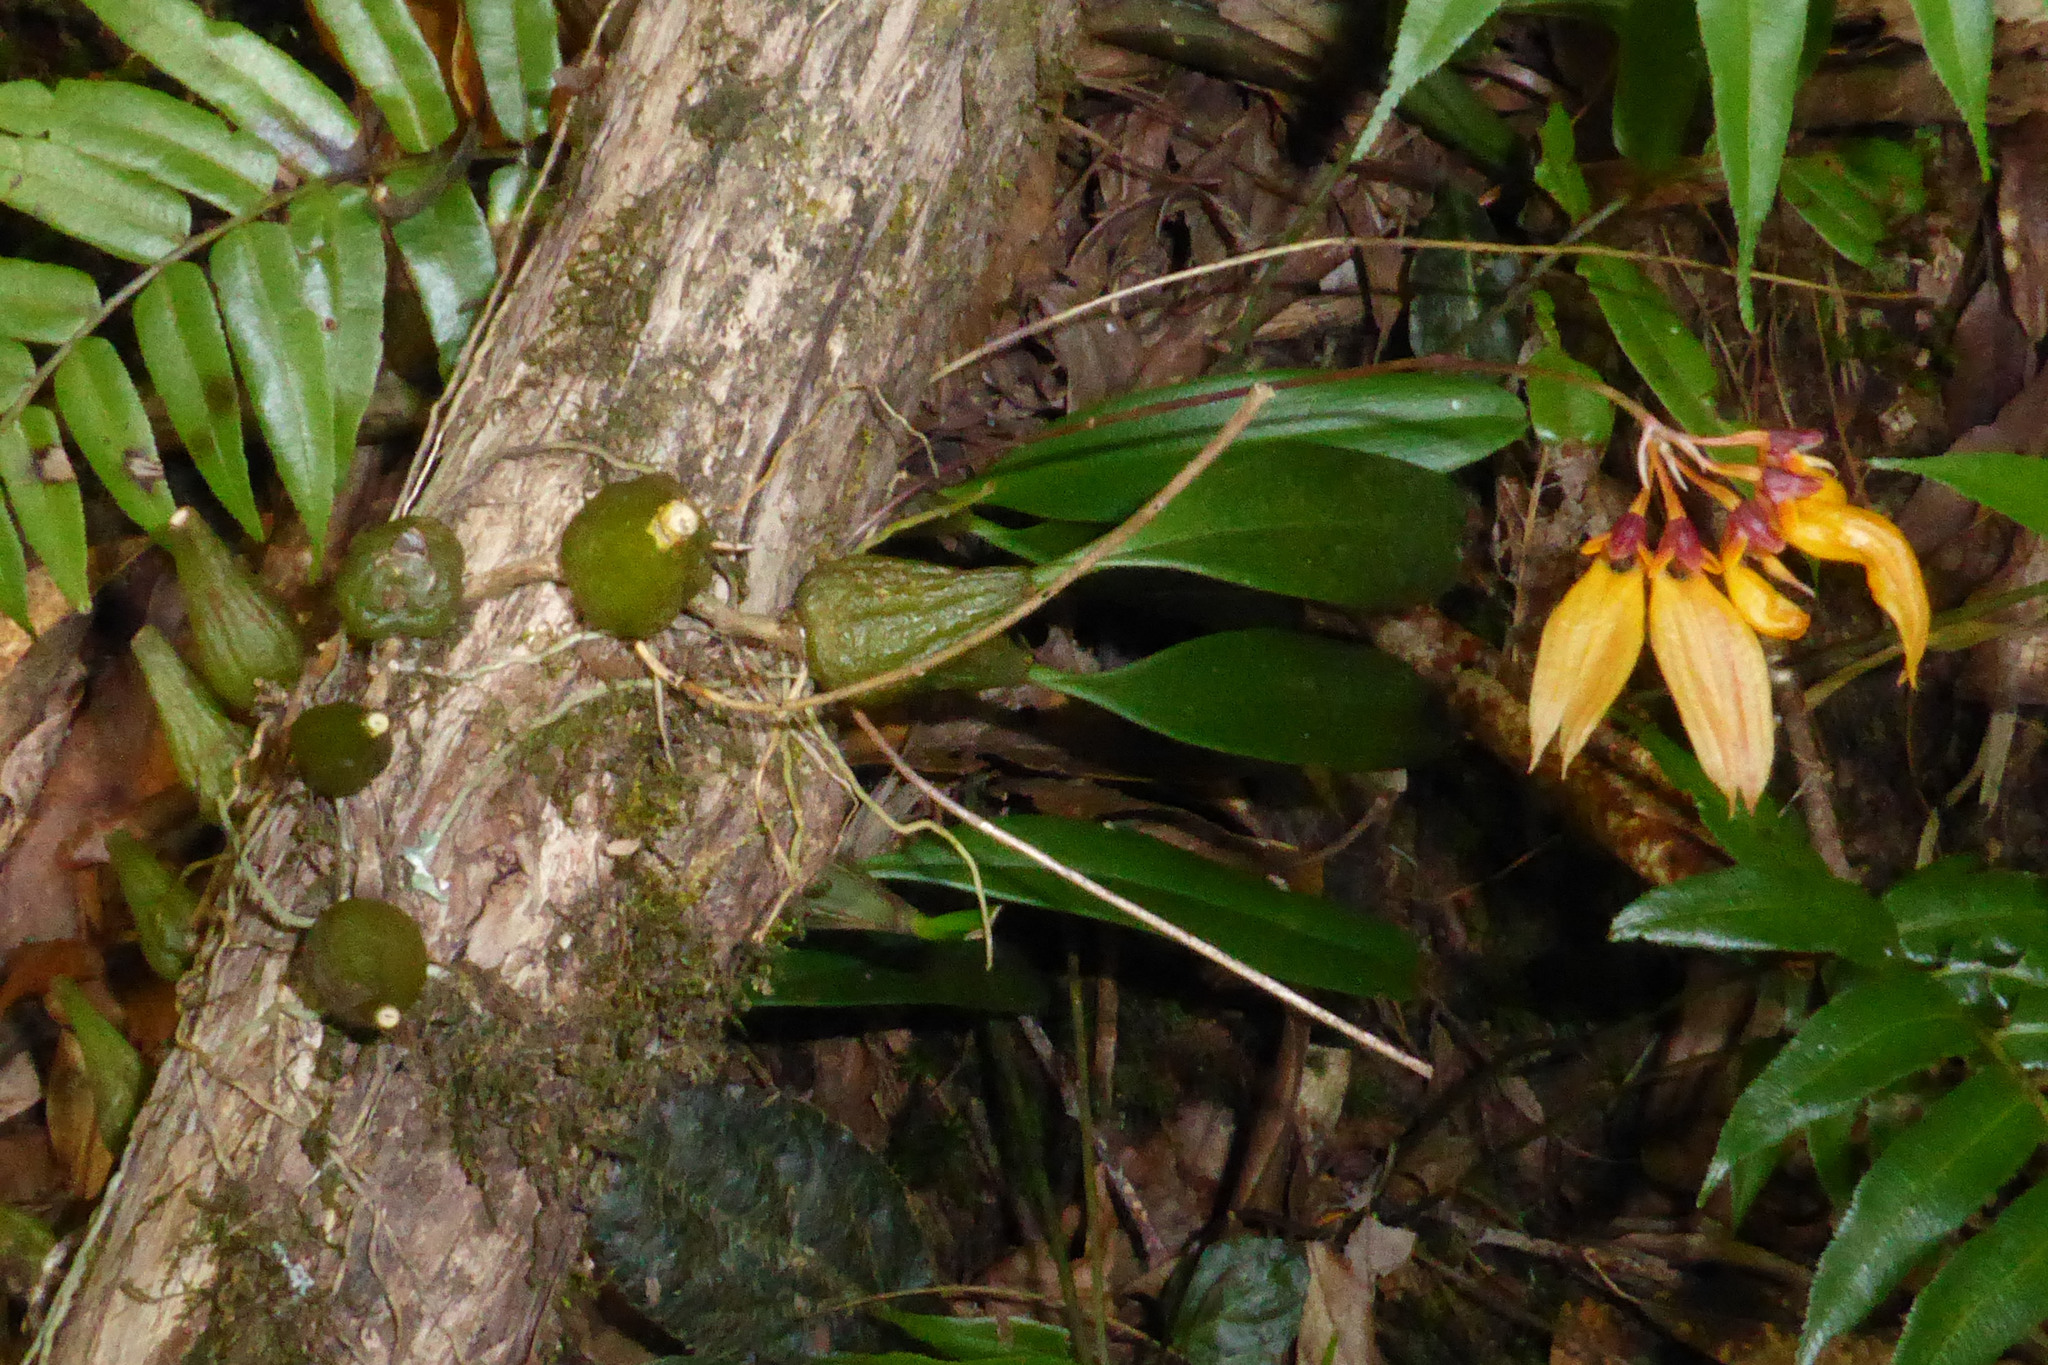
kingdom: Plantae
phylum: Tracheophyta
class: Liliopsida
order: Asparagales
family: Orchidaceae
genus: Bulbophyllum
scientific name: Bulbophyllum retusiusculum
